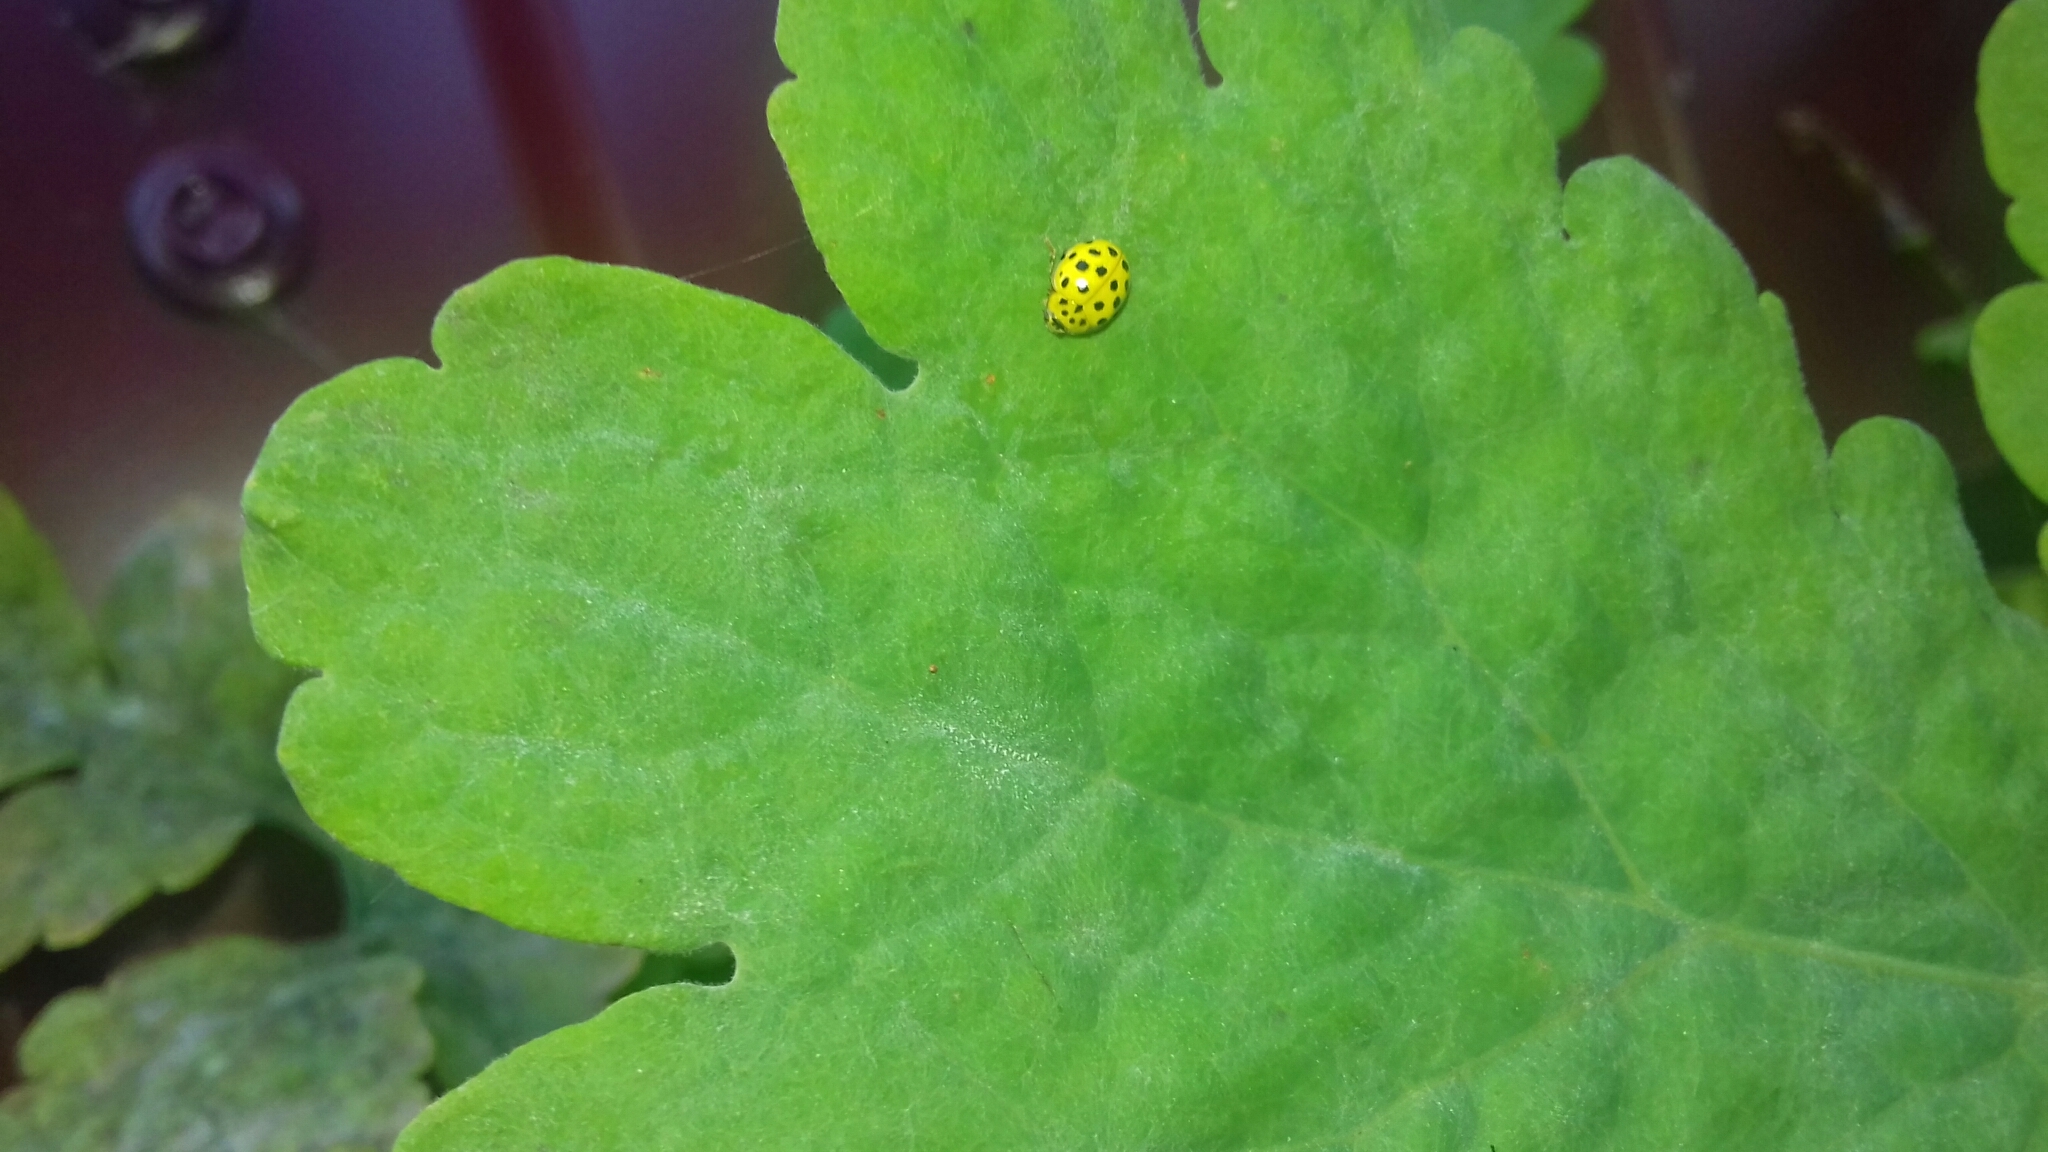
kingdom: Animalia
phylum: Arthropoda
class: Insecta
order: Coleoptera
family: Coccinellidae
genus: Psyllobora
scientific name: Psyllobora vigintiduopunctata
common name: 22-spot ladybird
